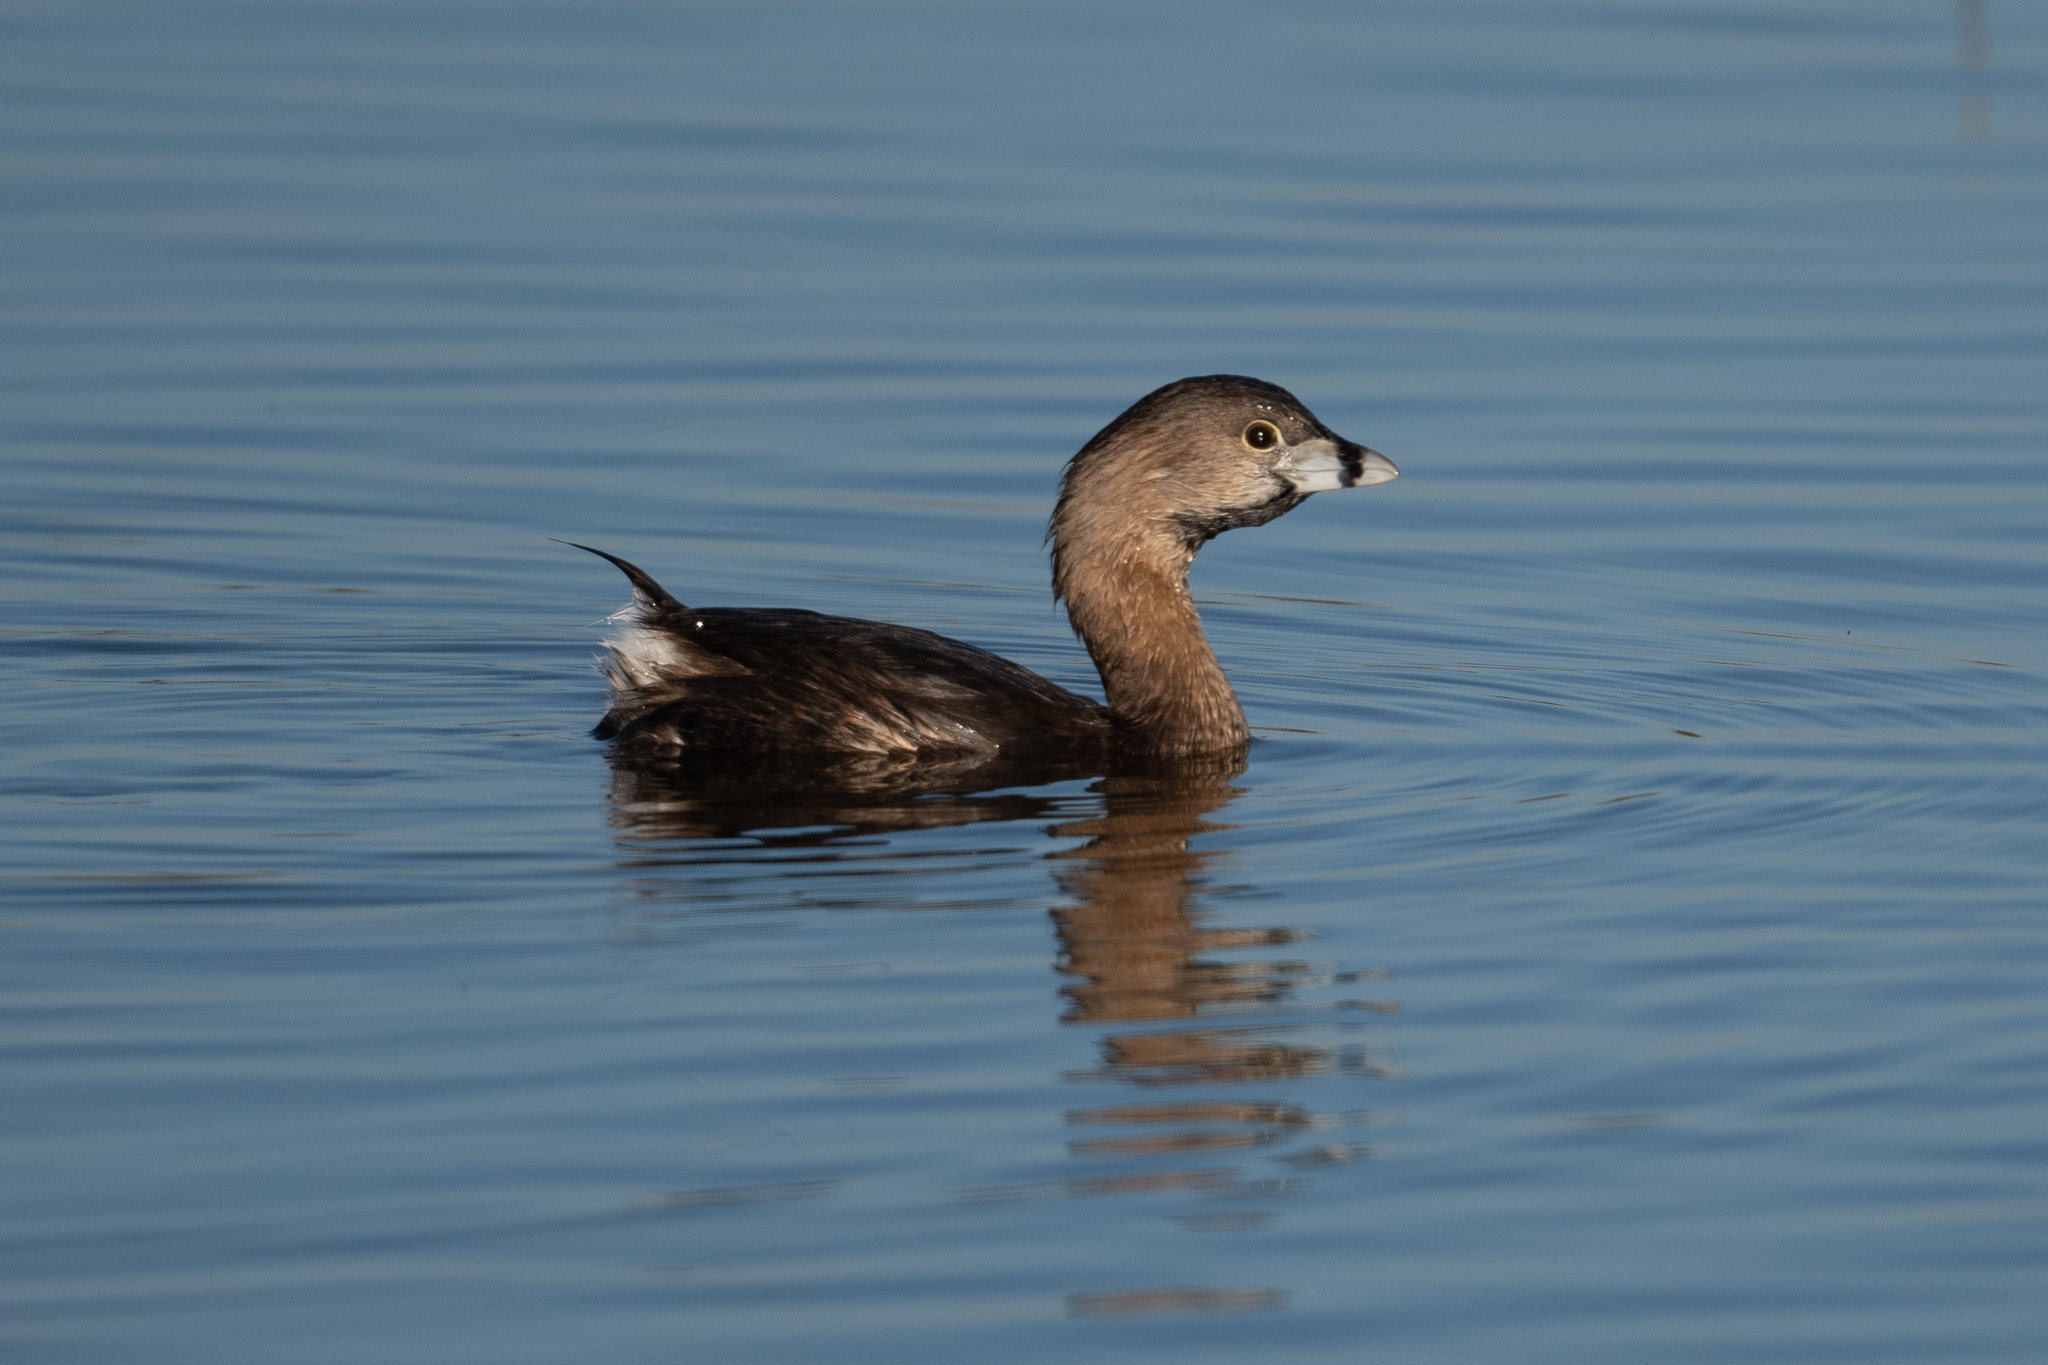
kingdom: Animalia
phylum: Chordata
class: Aves
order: Podicipediformes
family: Podicipedidae
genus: Podilymbus
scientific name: Podilymbus podiceps
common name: Pied-billed grebe
